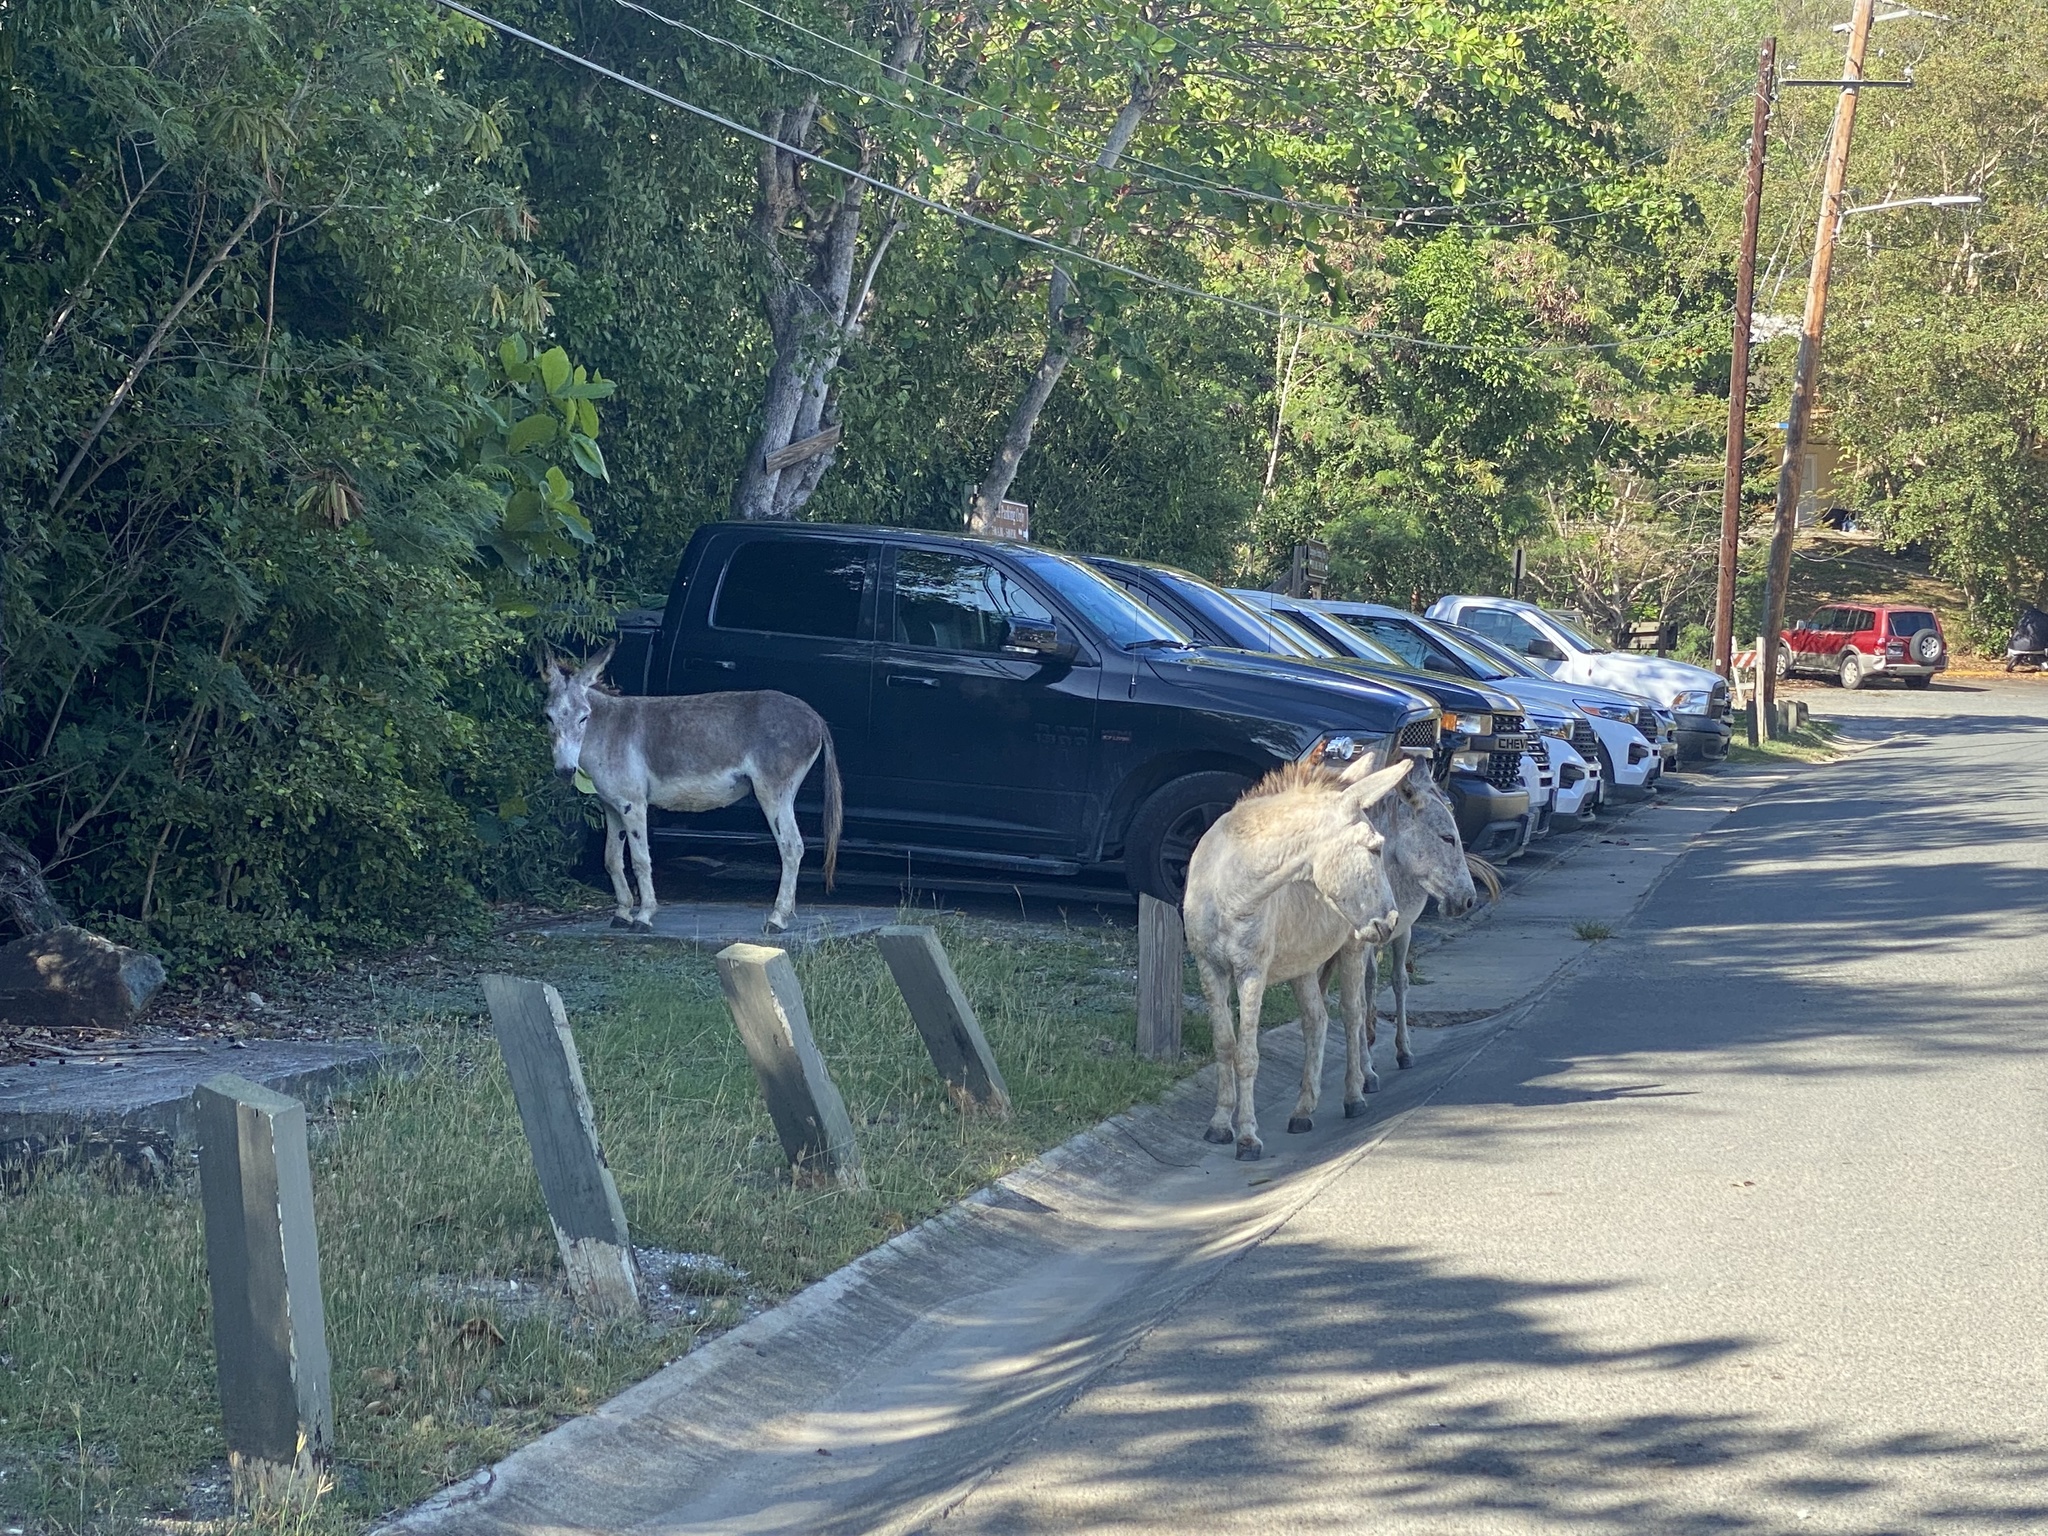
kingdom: Animalia
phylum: Chordata
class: Mammalia
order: Perissodactyla
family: Equidae
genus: Equus
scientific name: Equus asinus
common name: Ass
